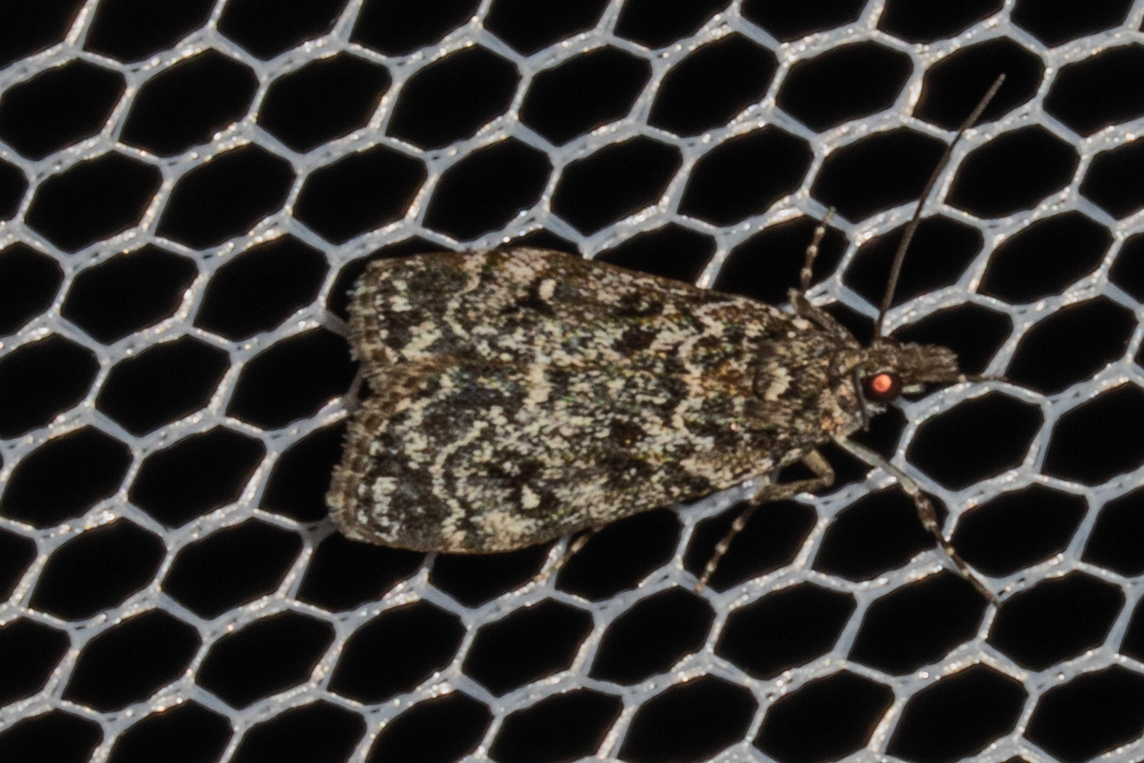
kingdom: Animalia
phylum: Arthropoda
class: Insecta
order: Lepidoptera
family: Crambidae
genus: Eudonia
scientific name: Eudonia philerga
